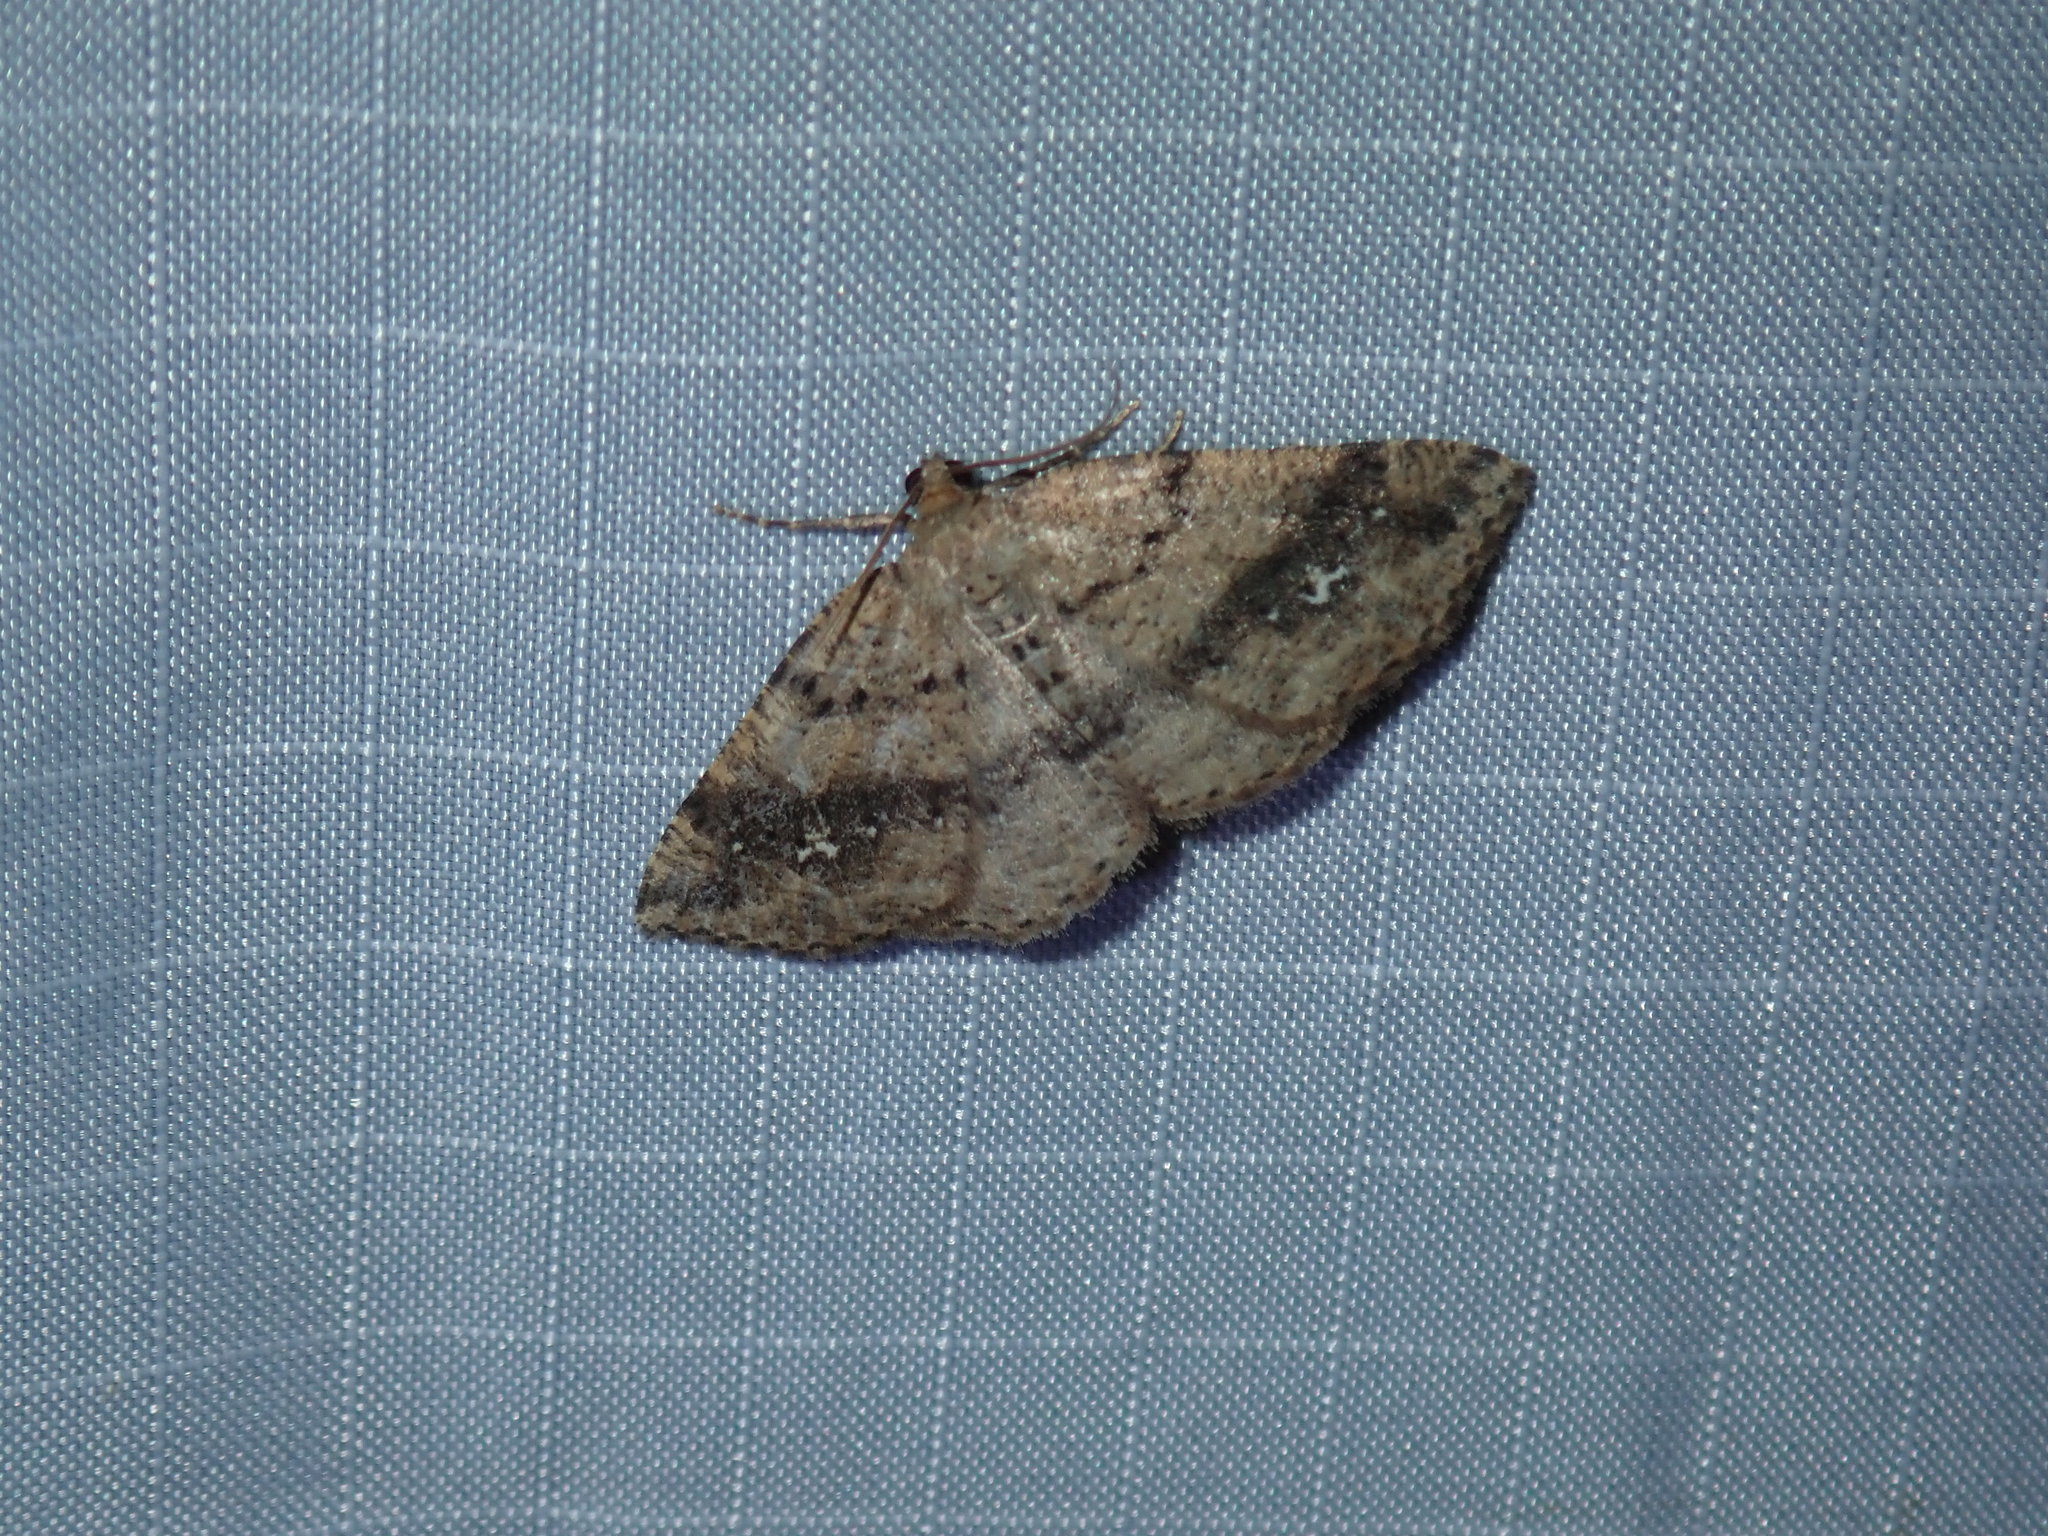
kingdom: Animalia
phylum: Arthropoda
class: Insecta
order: Lepidoptera
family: Geometridae
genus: Homochlodes
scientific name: Homochlodes fritillaria
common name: Pale homochlodes
